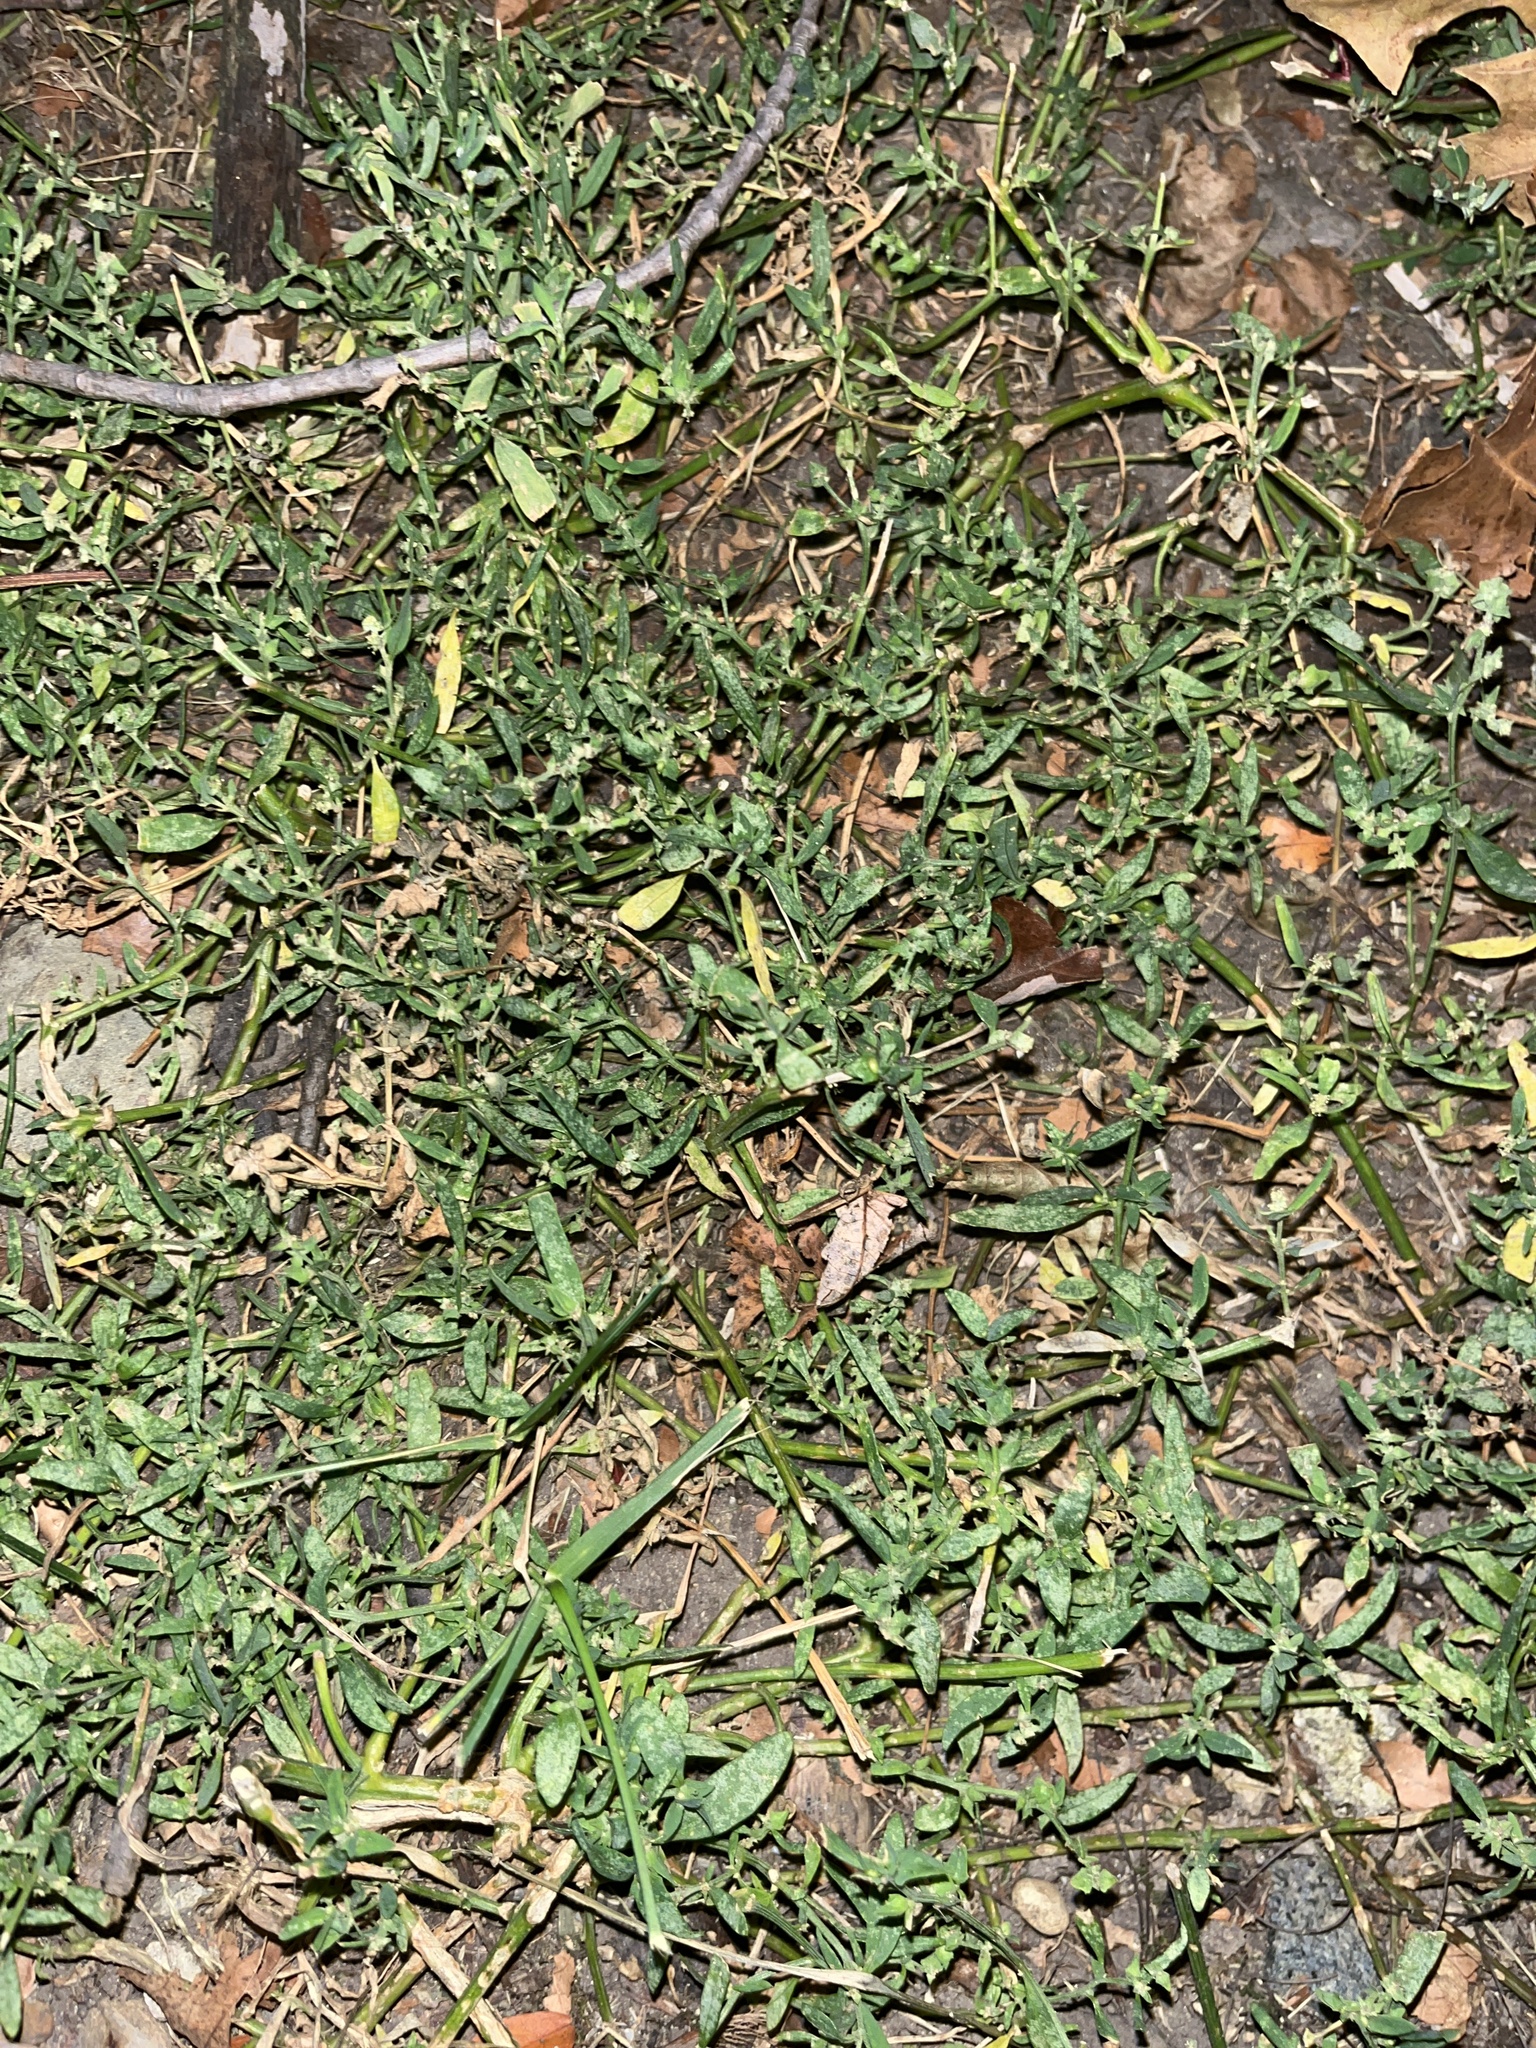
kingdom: Plantae
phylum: Tracheophyta
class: Magnoliopsida
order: Caryophyllales
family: Polygonaceae
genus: Polygonum
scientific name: Polygonum aviculare
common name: Prostrate knotweed
